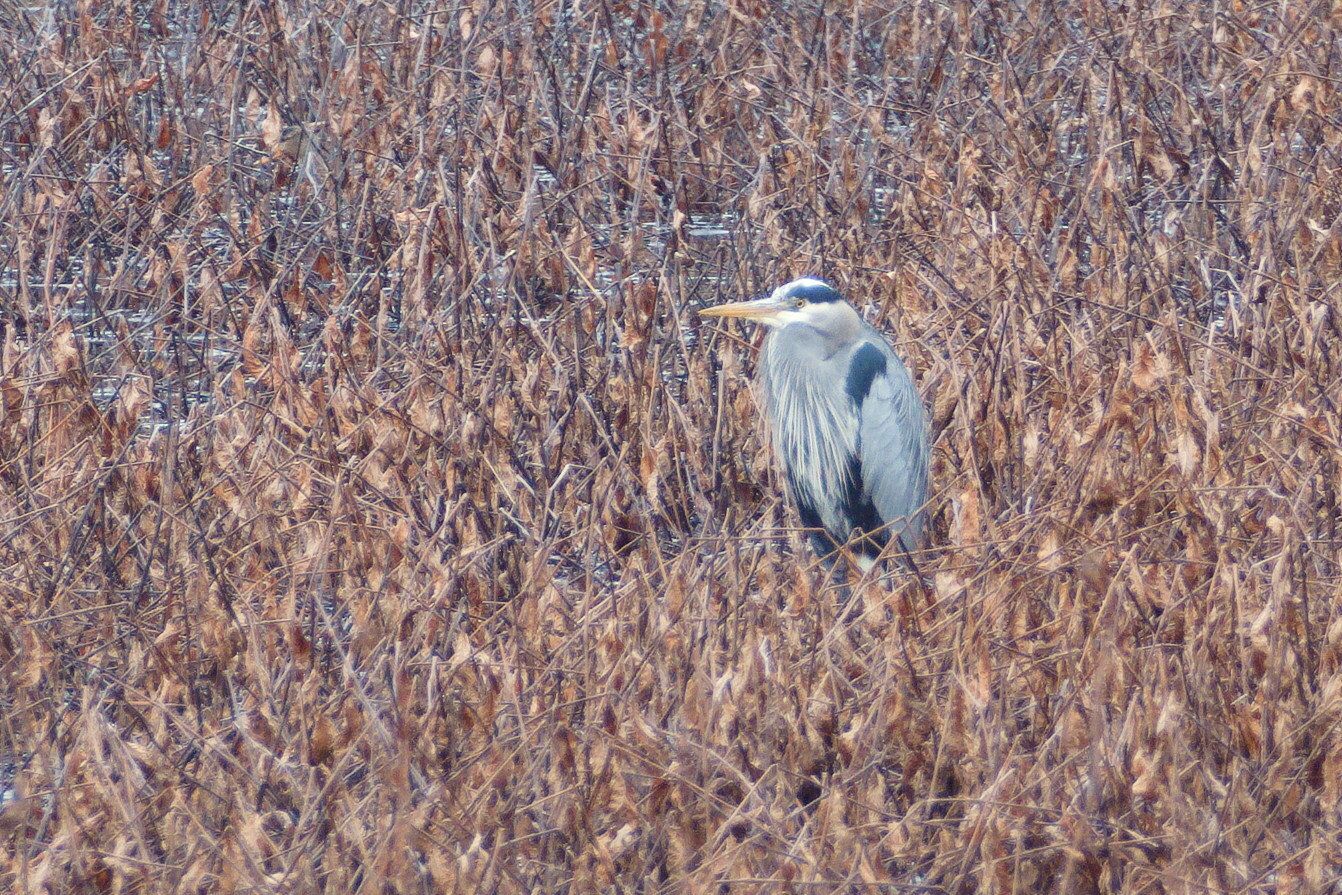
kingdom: Animalia
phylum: Chordata
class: Aves
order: Pelecaniformes
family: Ardeidae
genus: Ardea
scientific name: Ardea herodias
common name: Great blue heron
